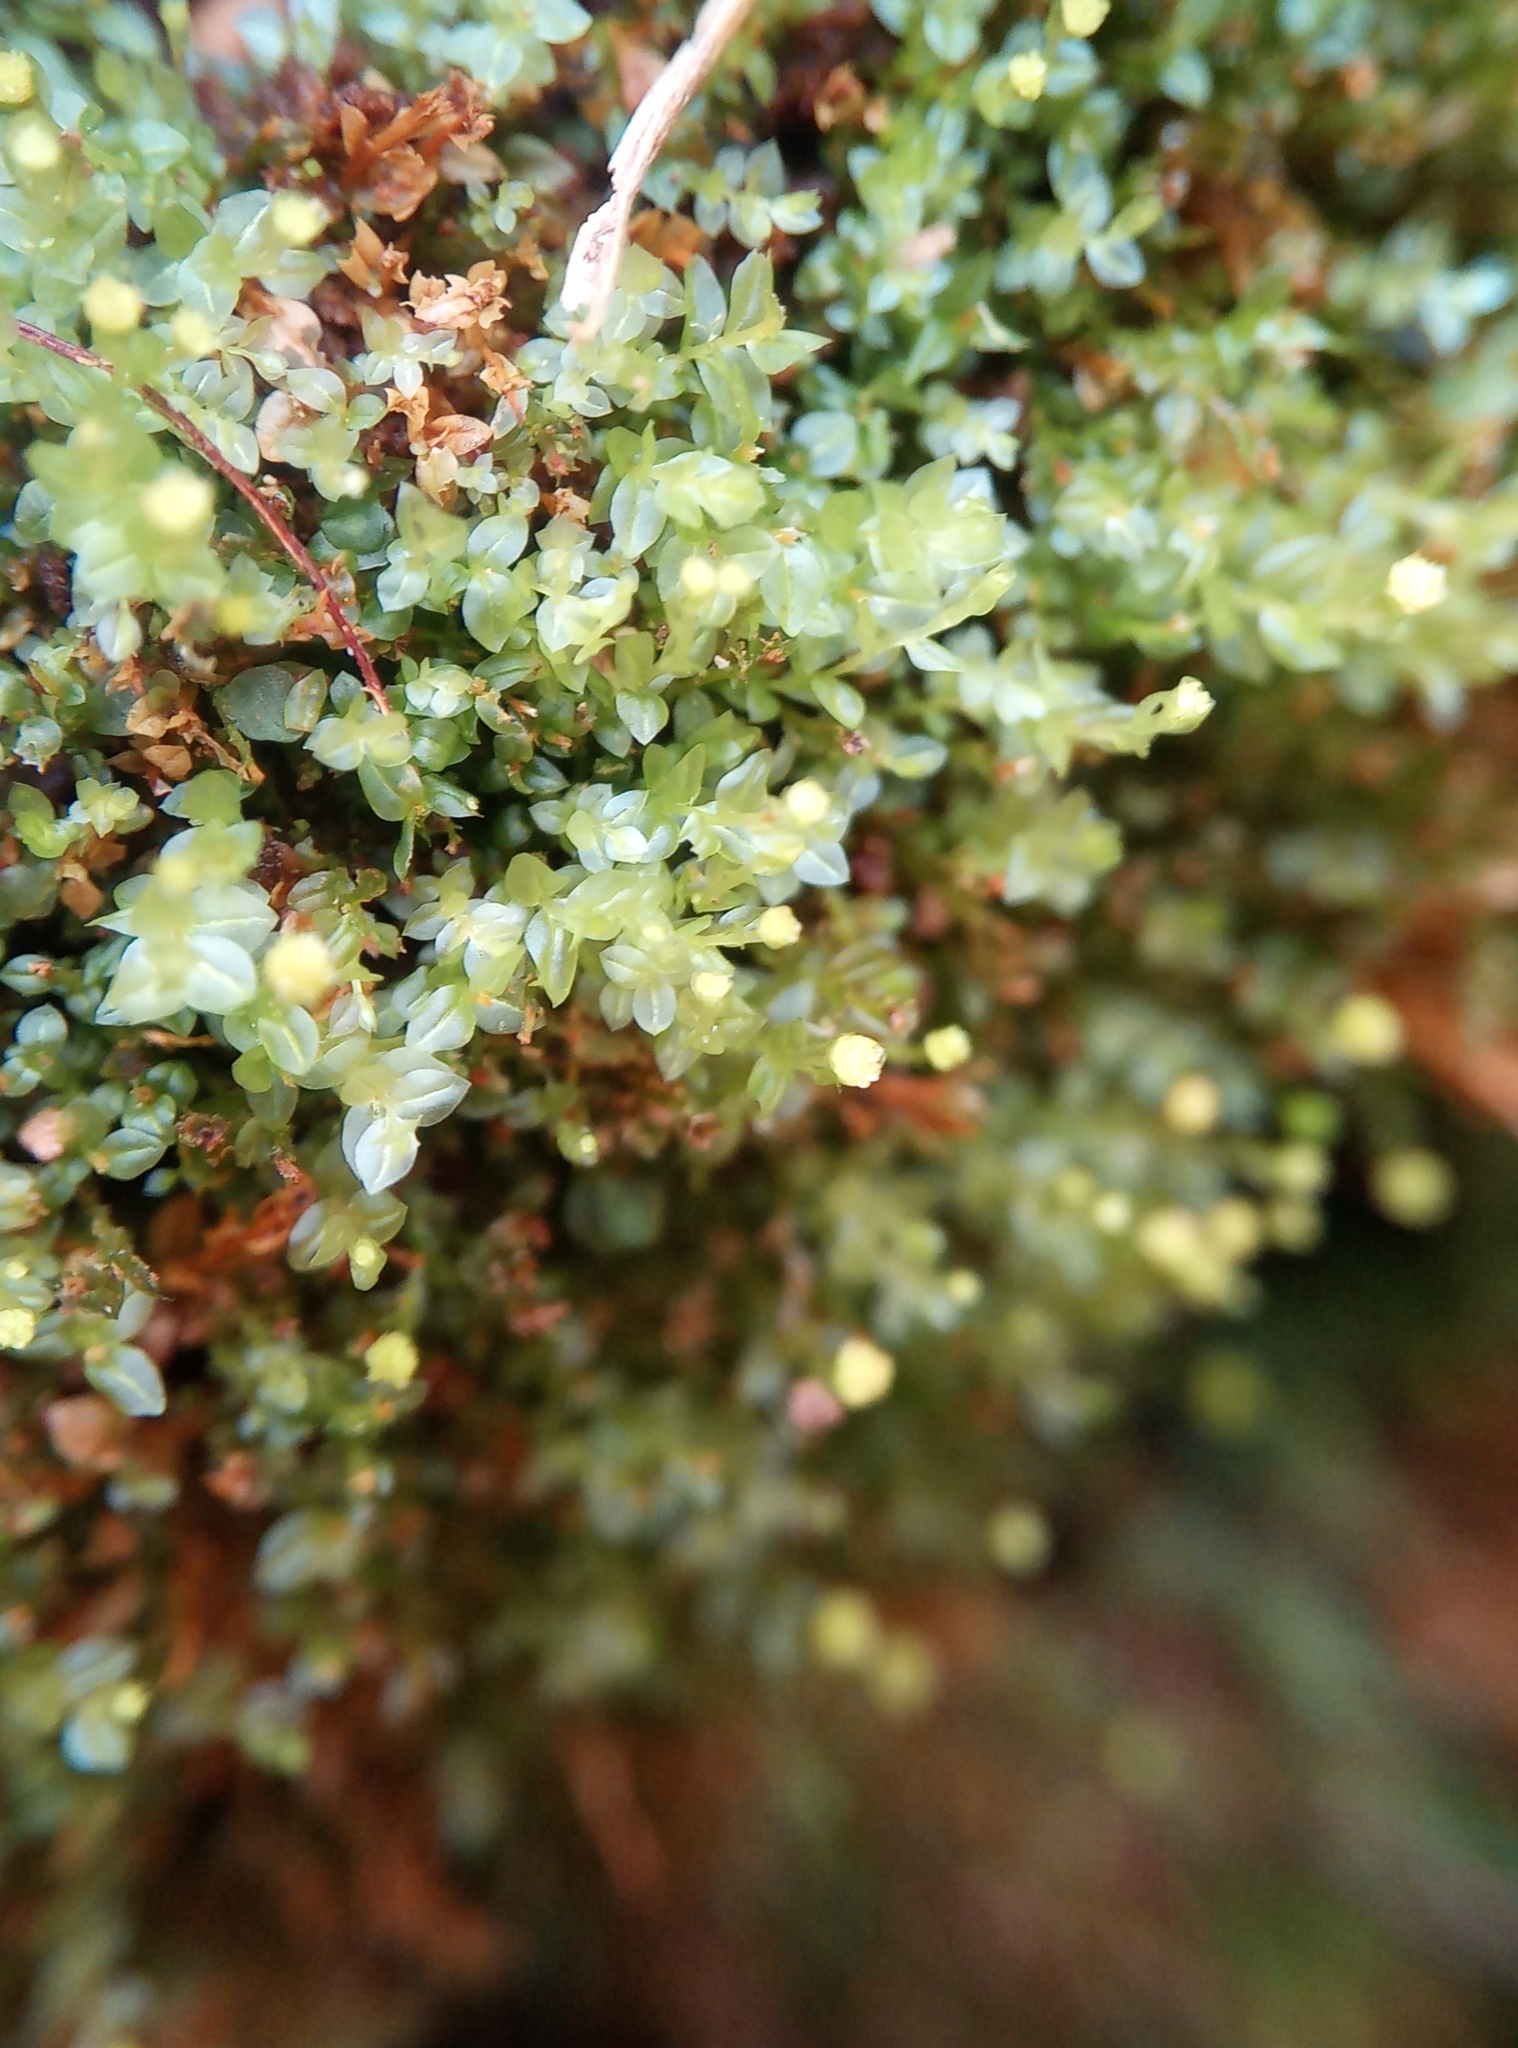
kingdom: Plantae
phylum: Bryophyta
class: Polytrichopsida
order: Tetraphidales
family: Tetraphidaceae
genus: Tetraphis
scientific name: Tetraphis pellucida
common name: Common four-toothed moss
